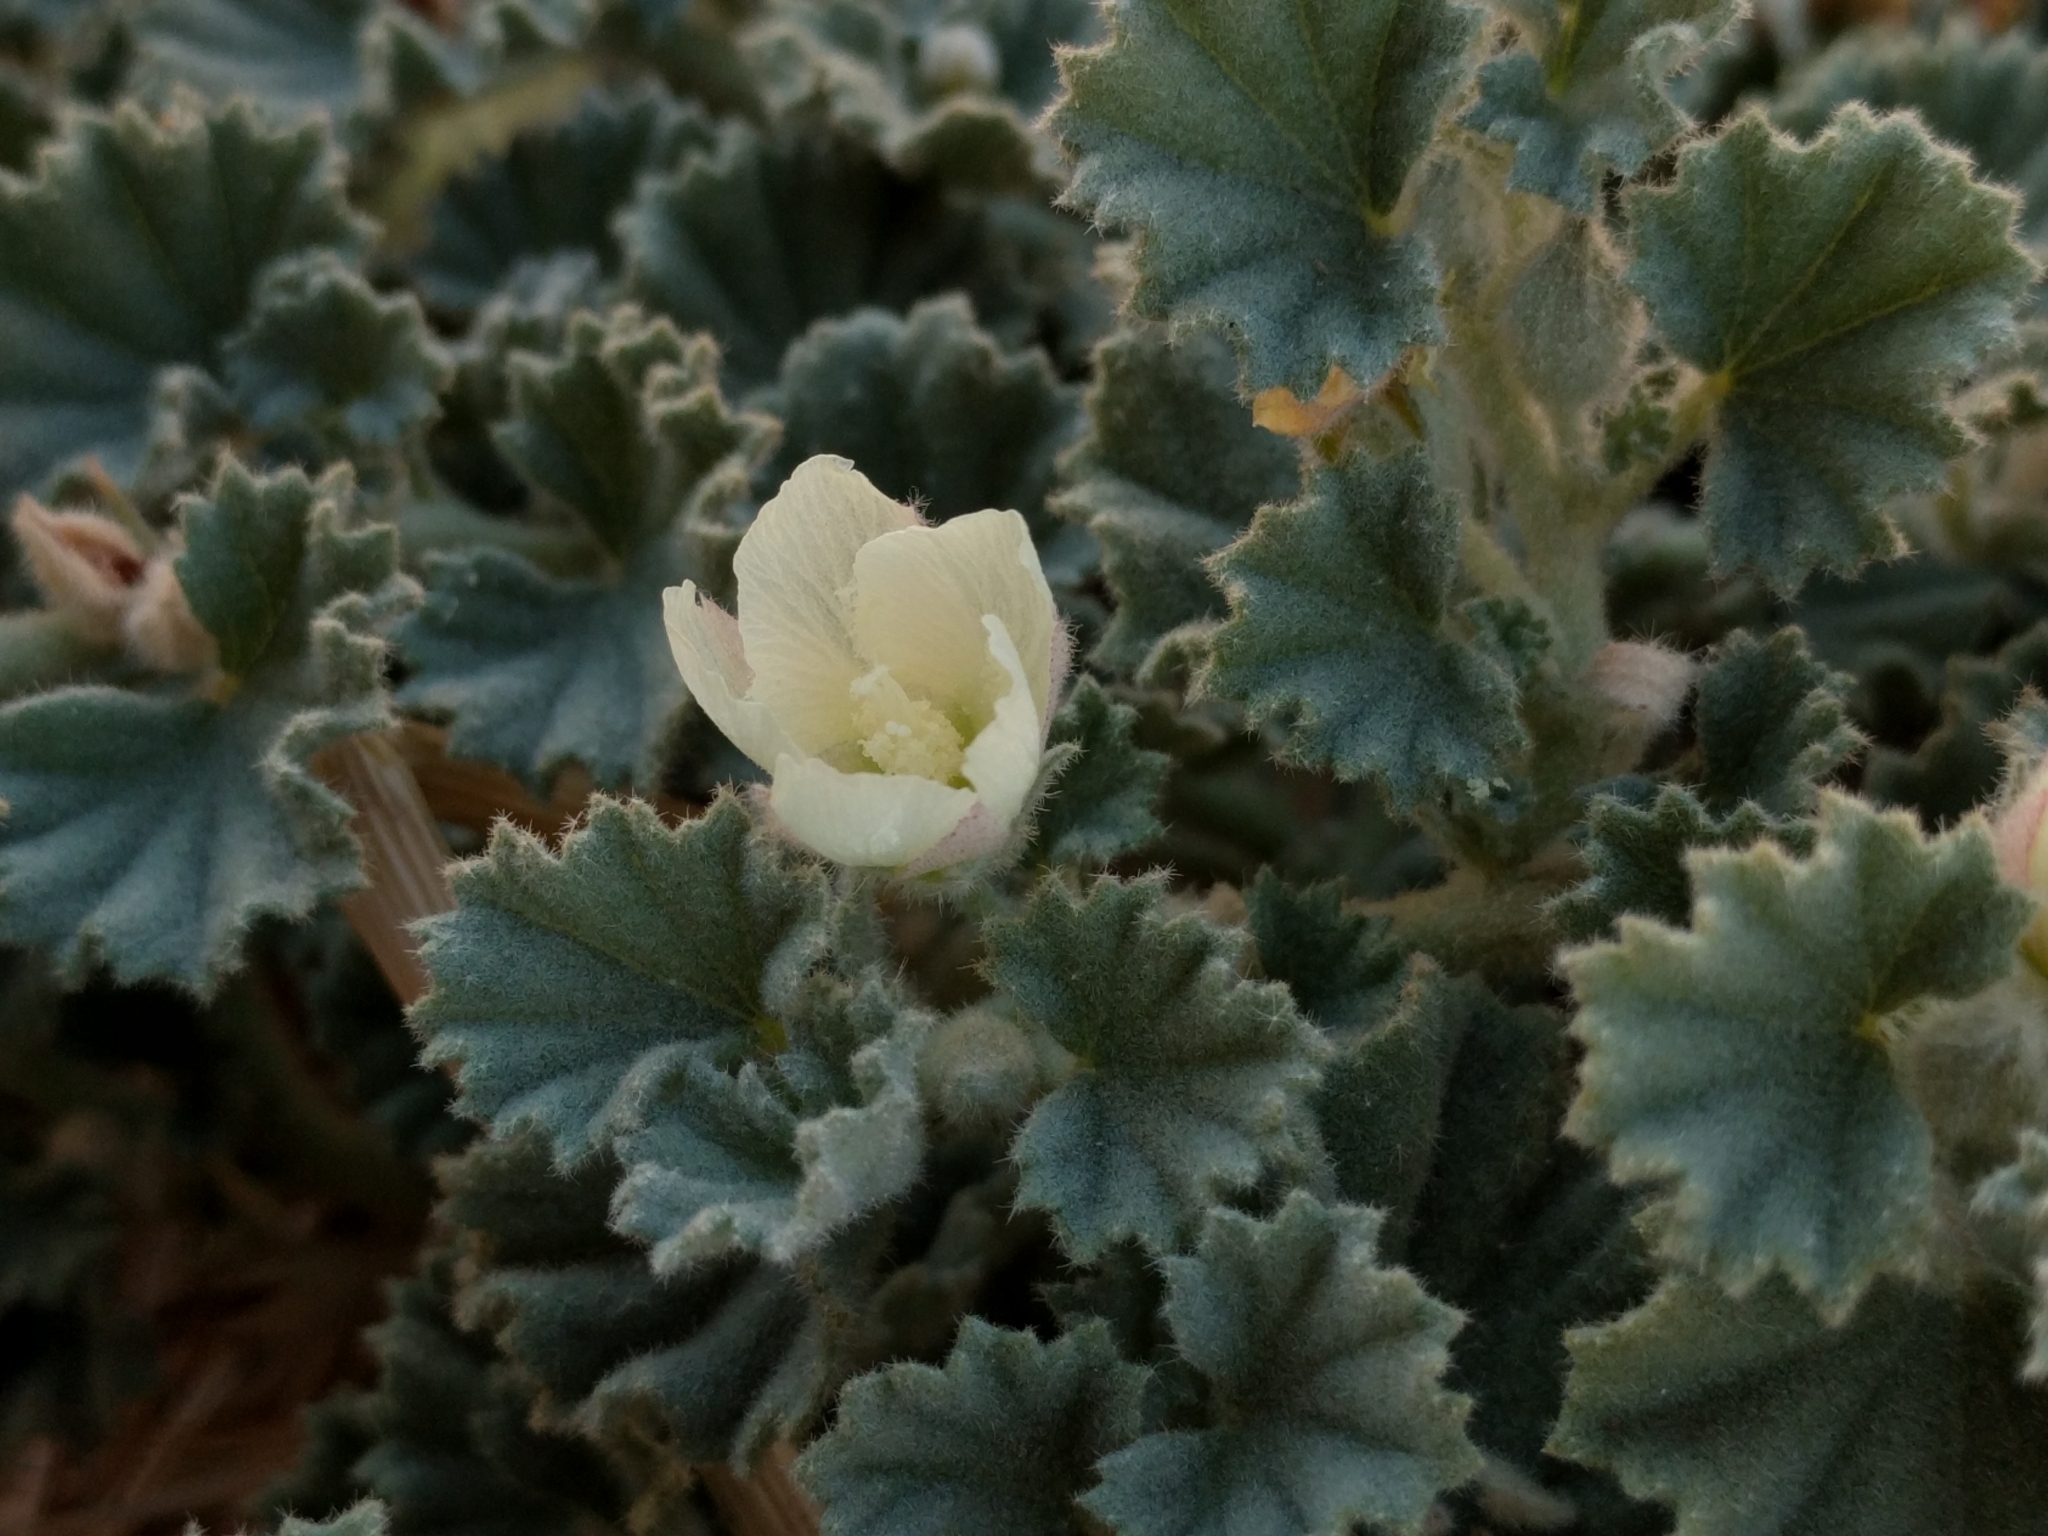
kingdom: Plantae
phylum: Tracheophyta
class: Magnoliopsida
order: Malvales
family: Malvaceae
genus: Malvella
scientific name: Malvella leprosa
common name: Alkali-mallow
